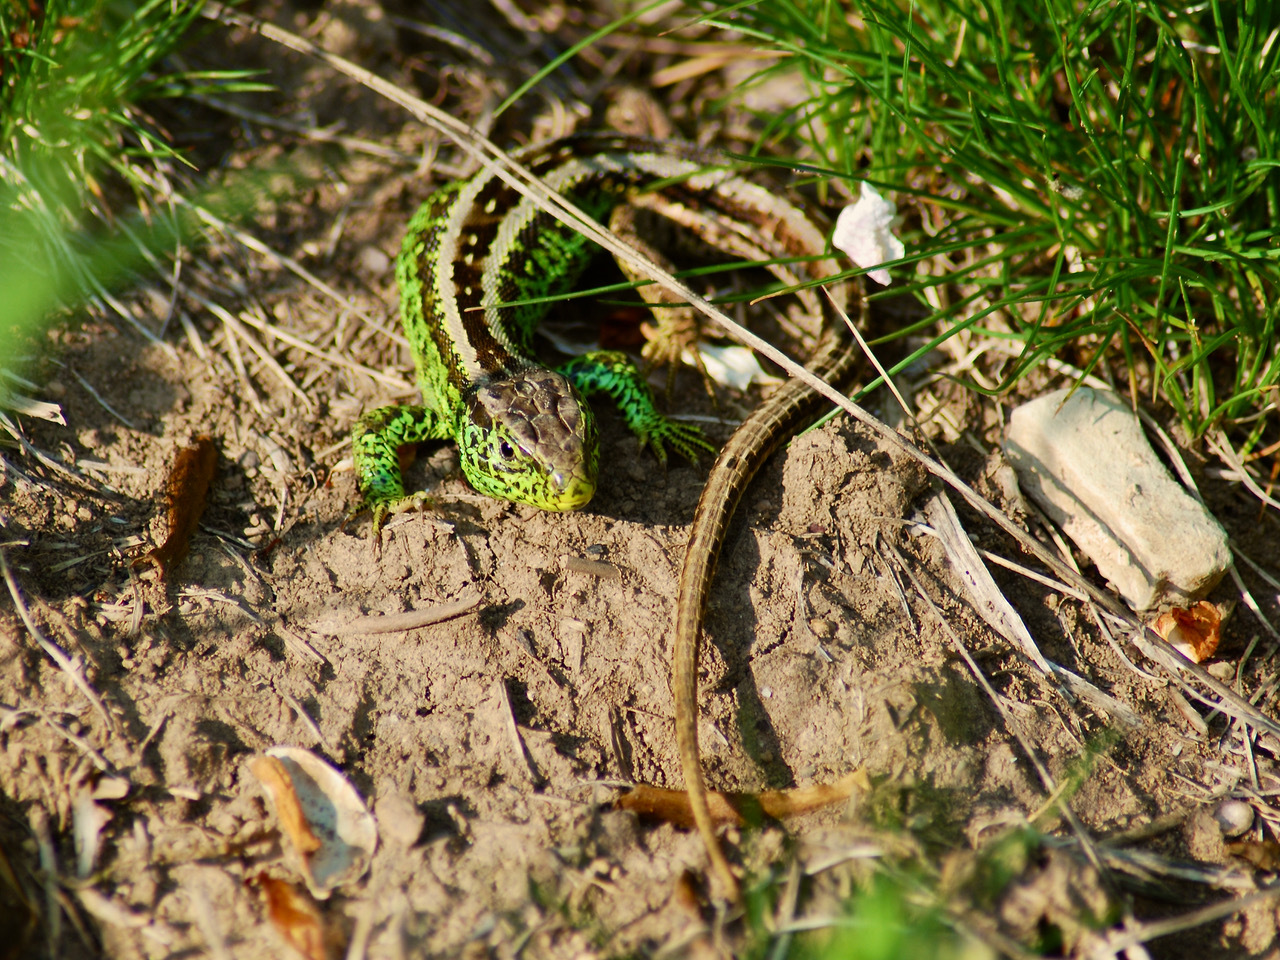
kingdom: Animalia
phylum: Chordata
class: Squamata
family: Lacertidae
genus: Lacerta
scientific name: Lacerta agilis
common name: Sand lizard
